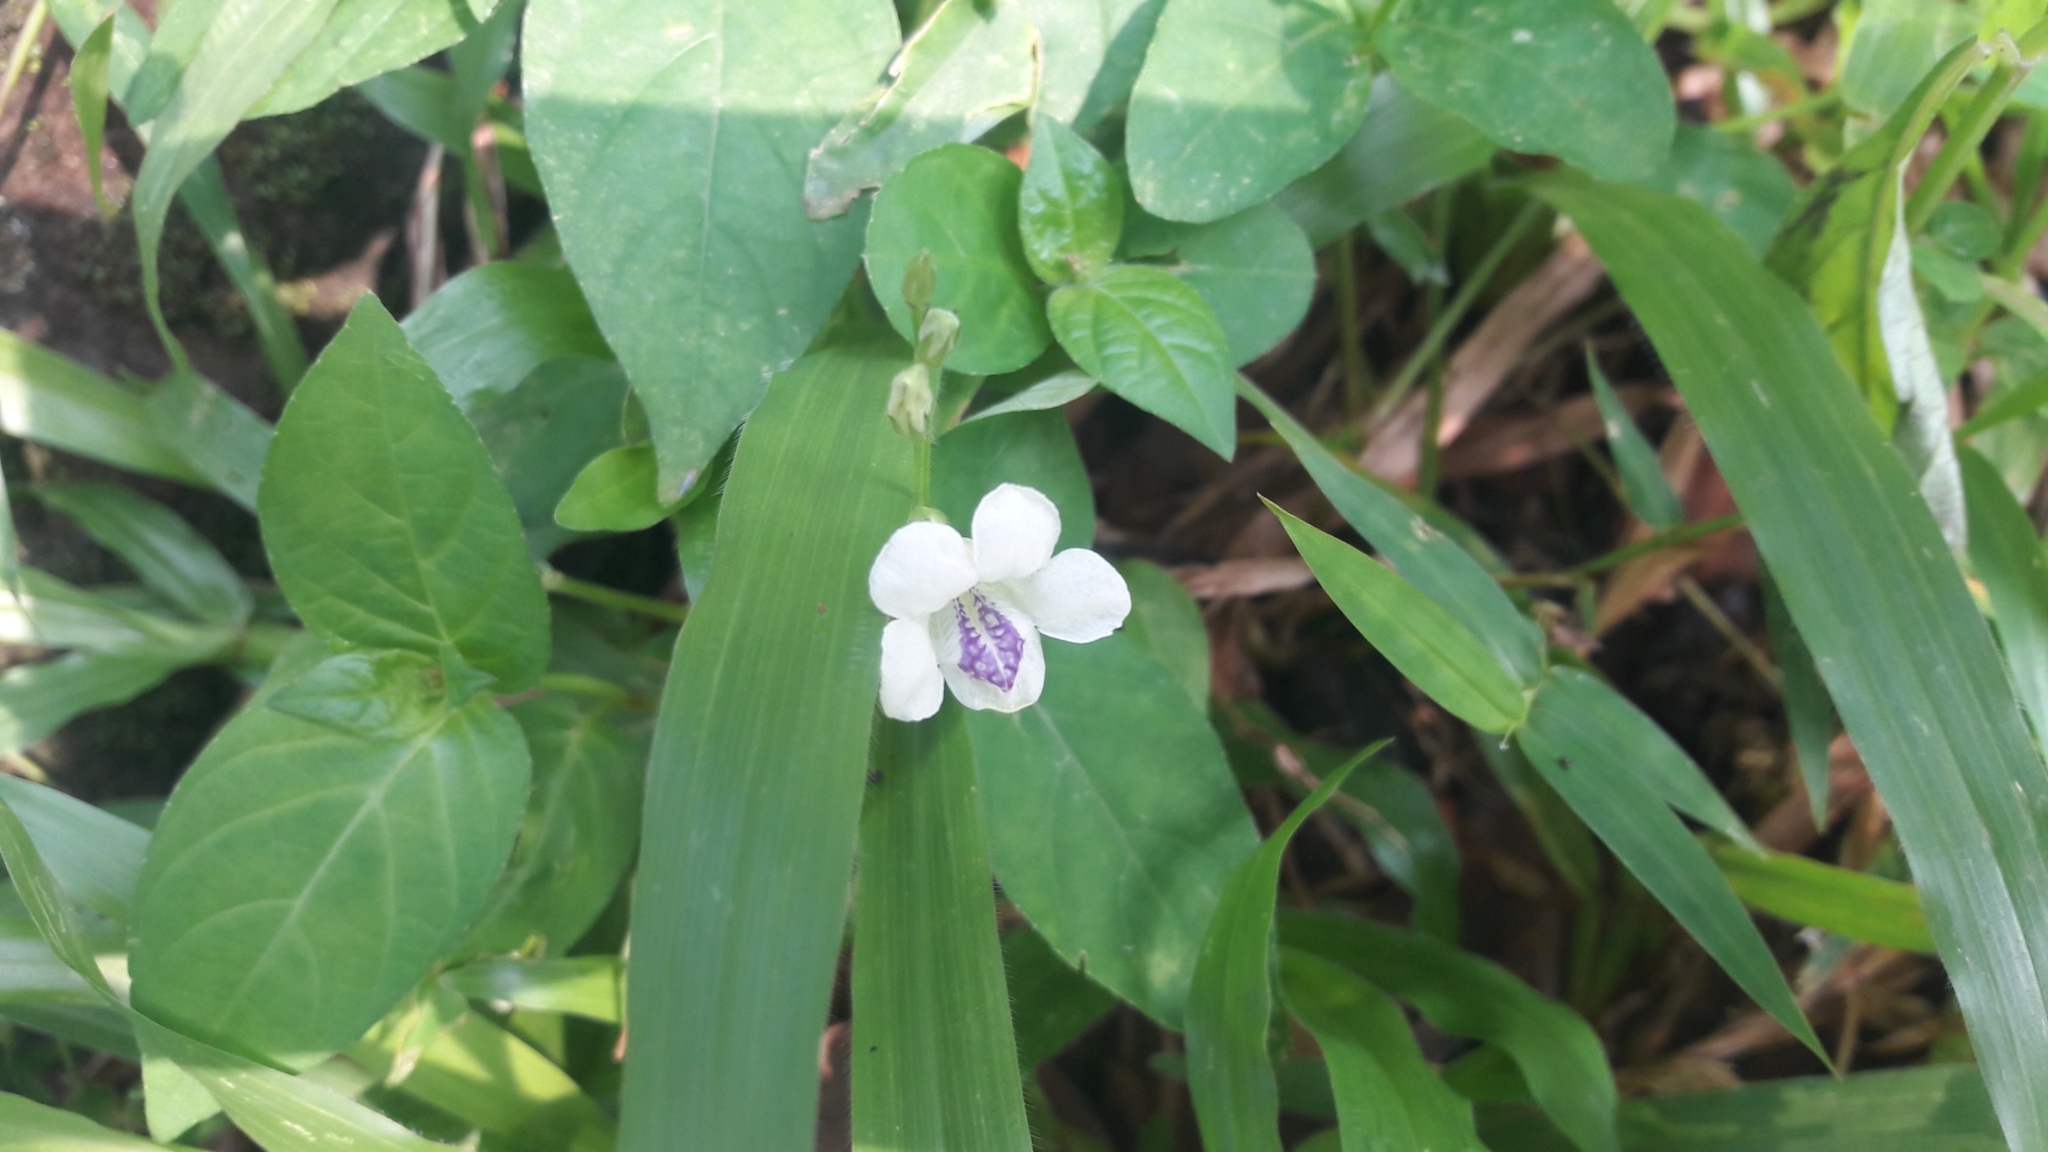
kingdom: Plantae
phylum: Tracheophyta
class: Magnoliopsida
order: Lamiales
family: Acanthaceae
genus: Asystasia
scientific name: Asystasia intrusa
